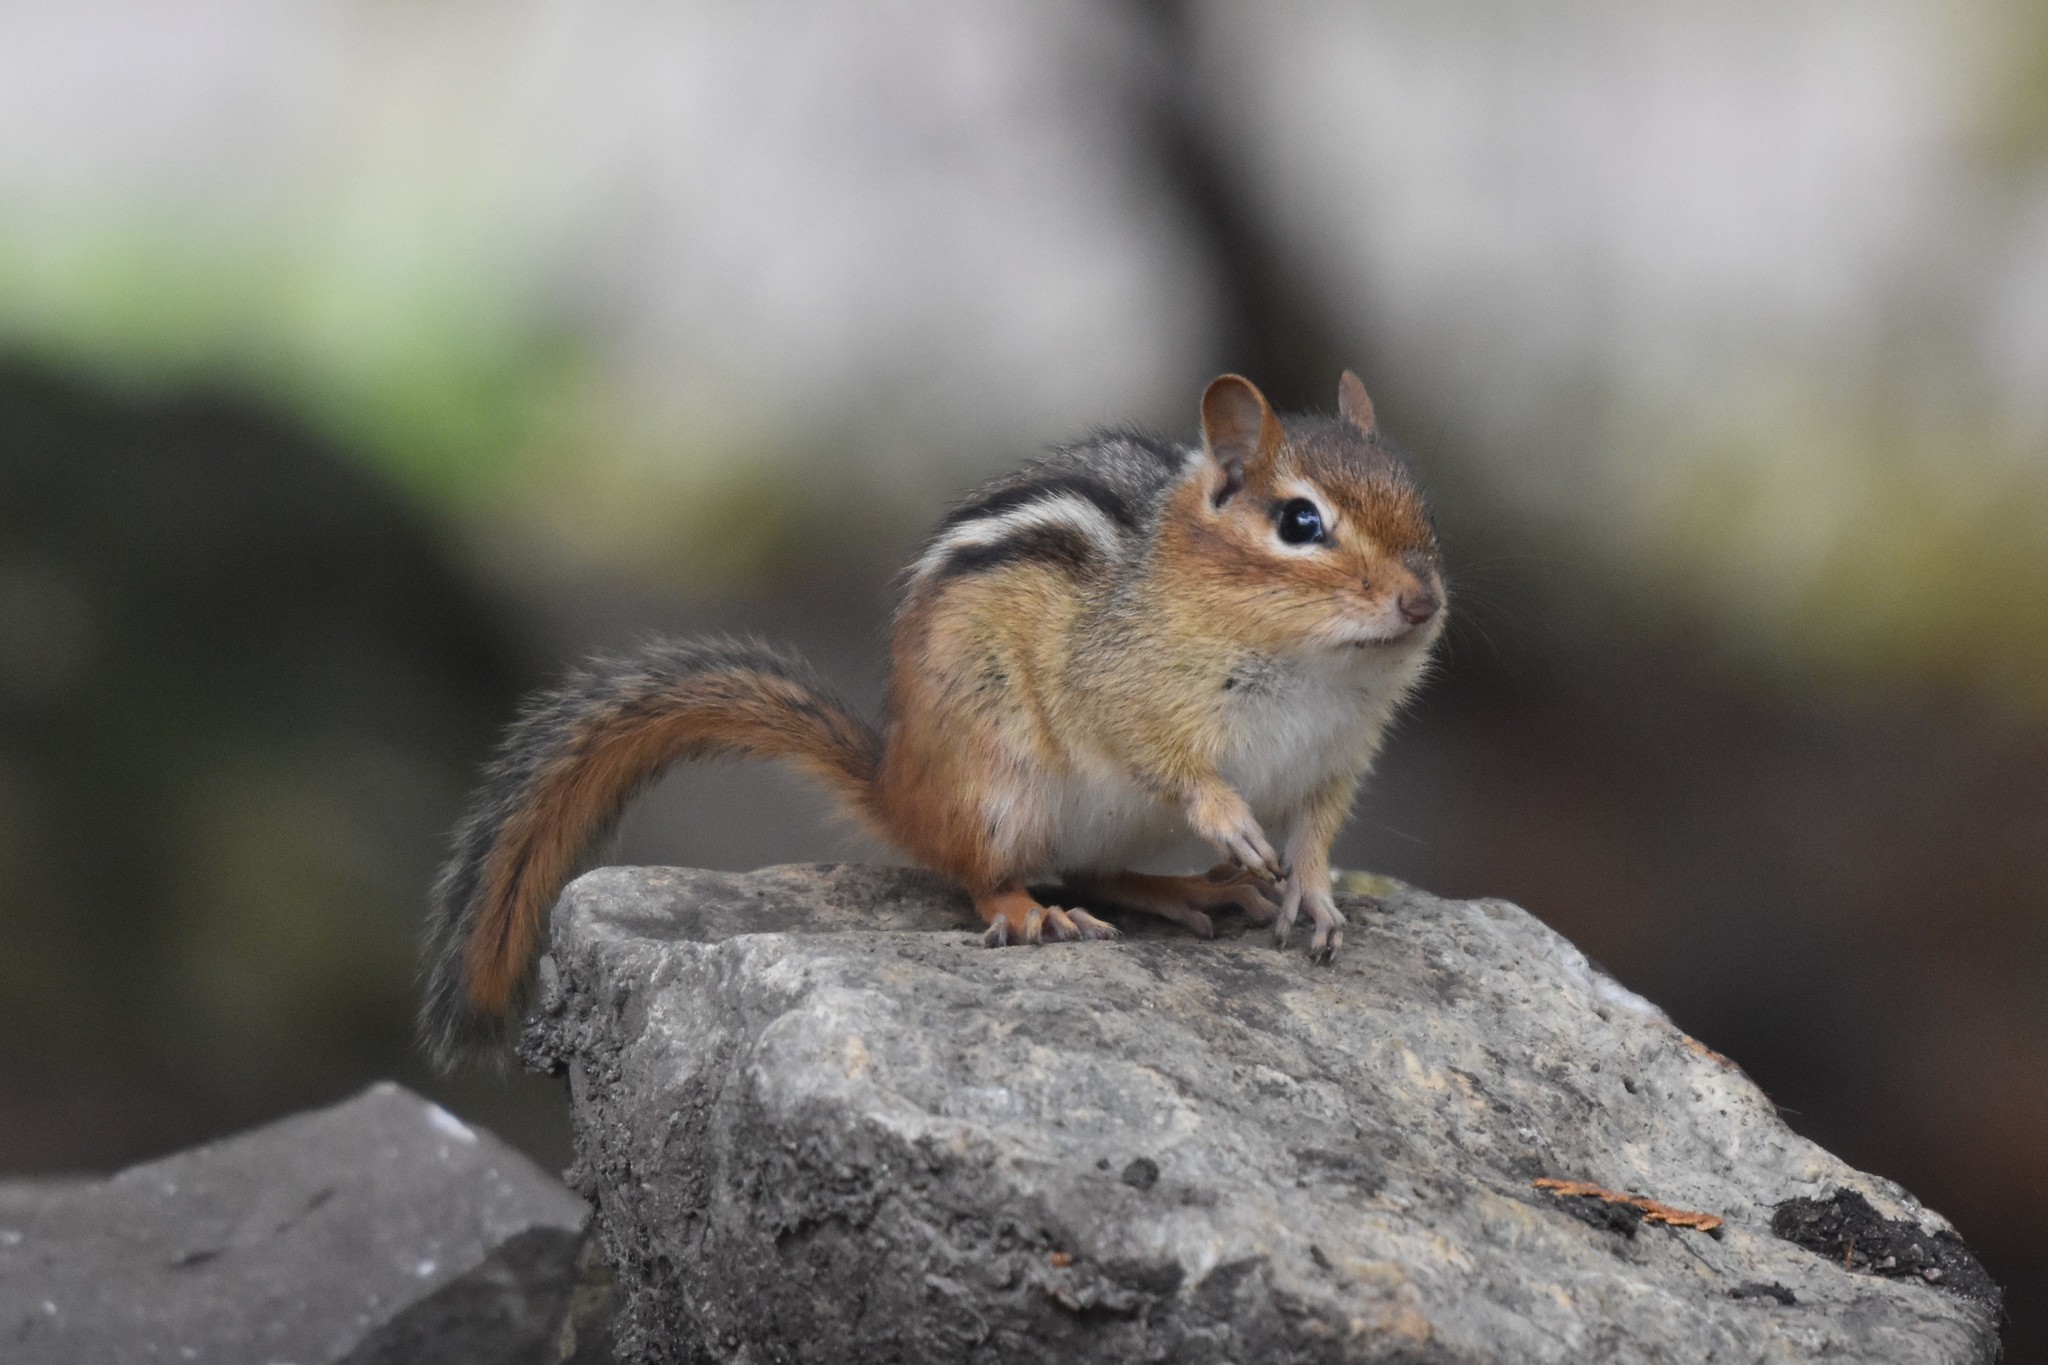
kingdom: Animalia
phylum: Chordata
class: Mammalia
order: Rodentia
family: Sciuridae
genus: Tamias
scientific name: Tamias striatus
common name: Eastern chipmunk
